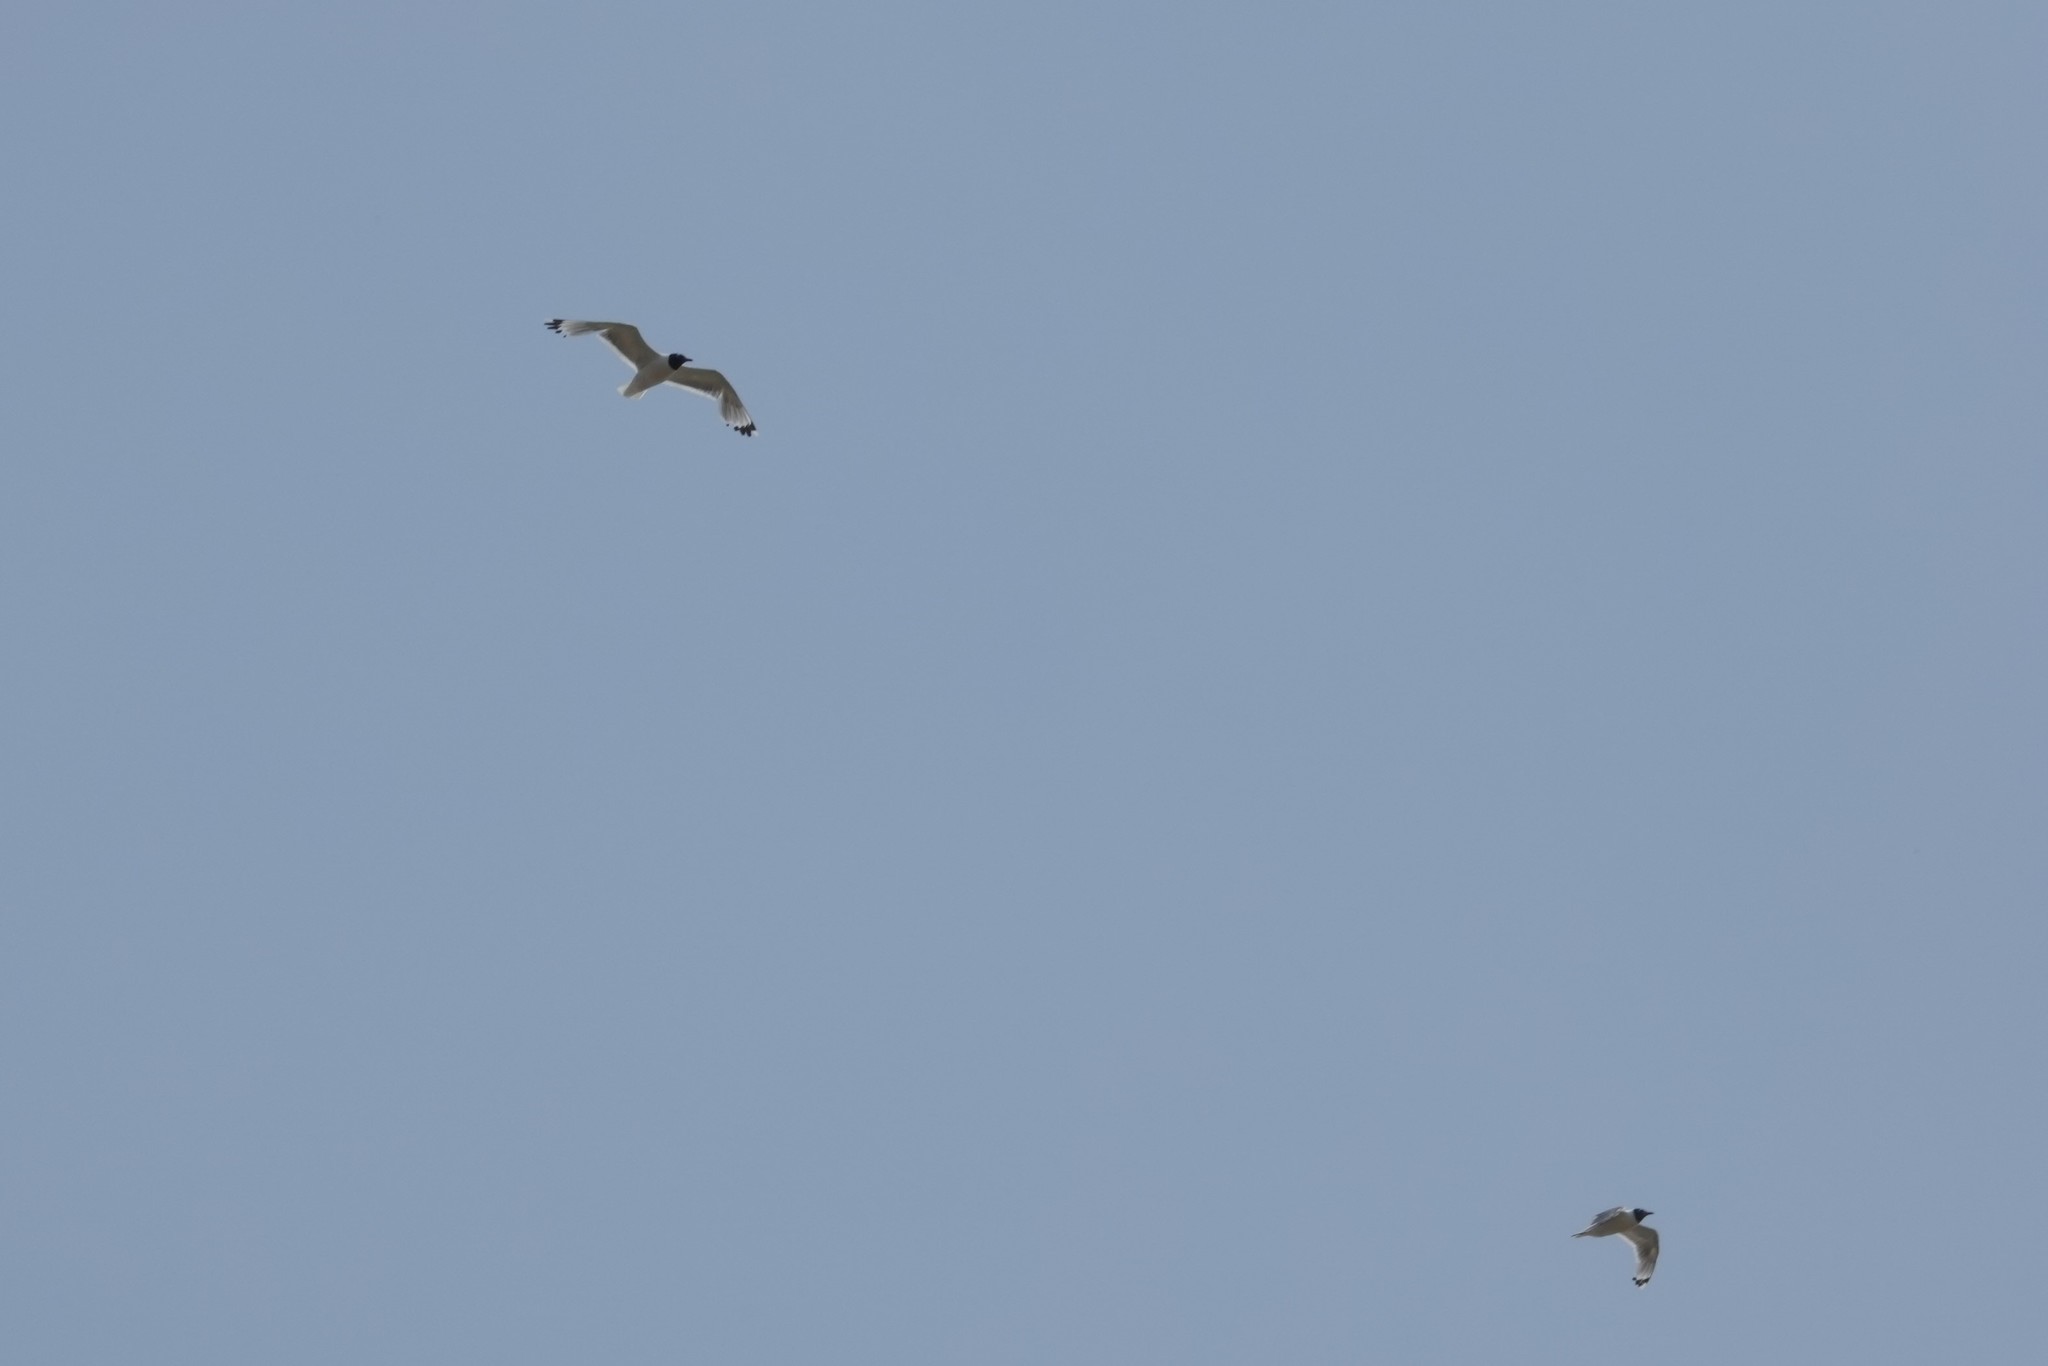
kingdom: Animalia
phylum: Chordata
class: Aves
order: Charadriiformes
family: Laridae
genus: Leucophaeus
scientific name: Leucophaeus pipixcan
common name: Franklin's gull
